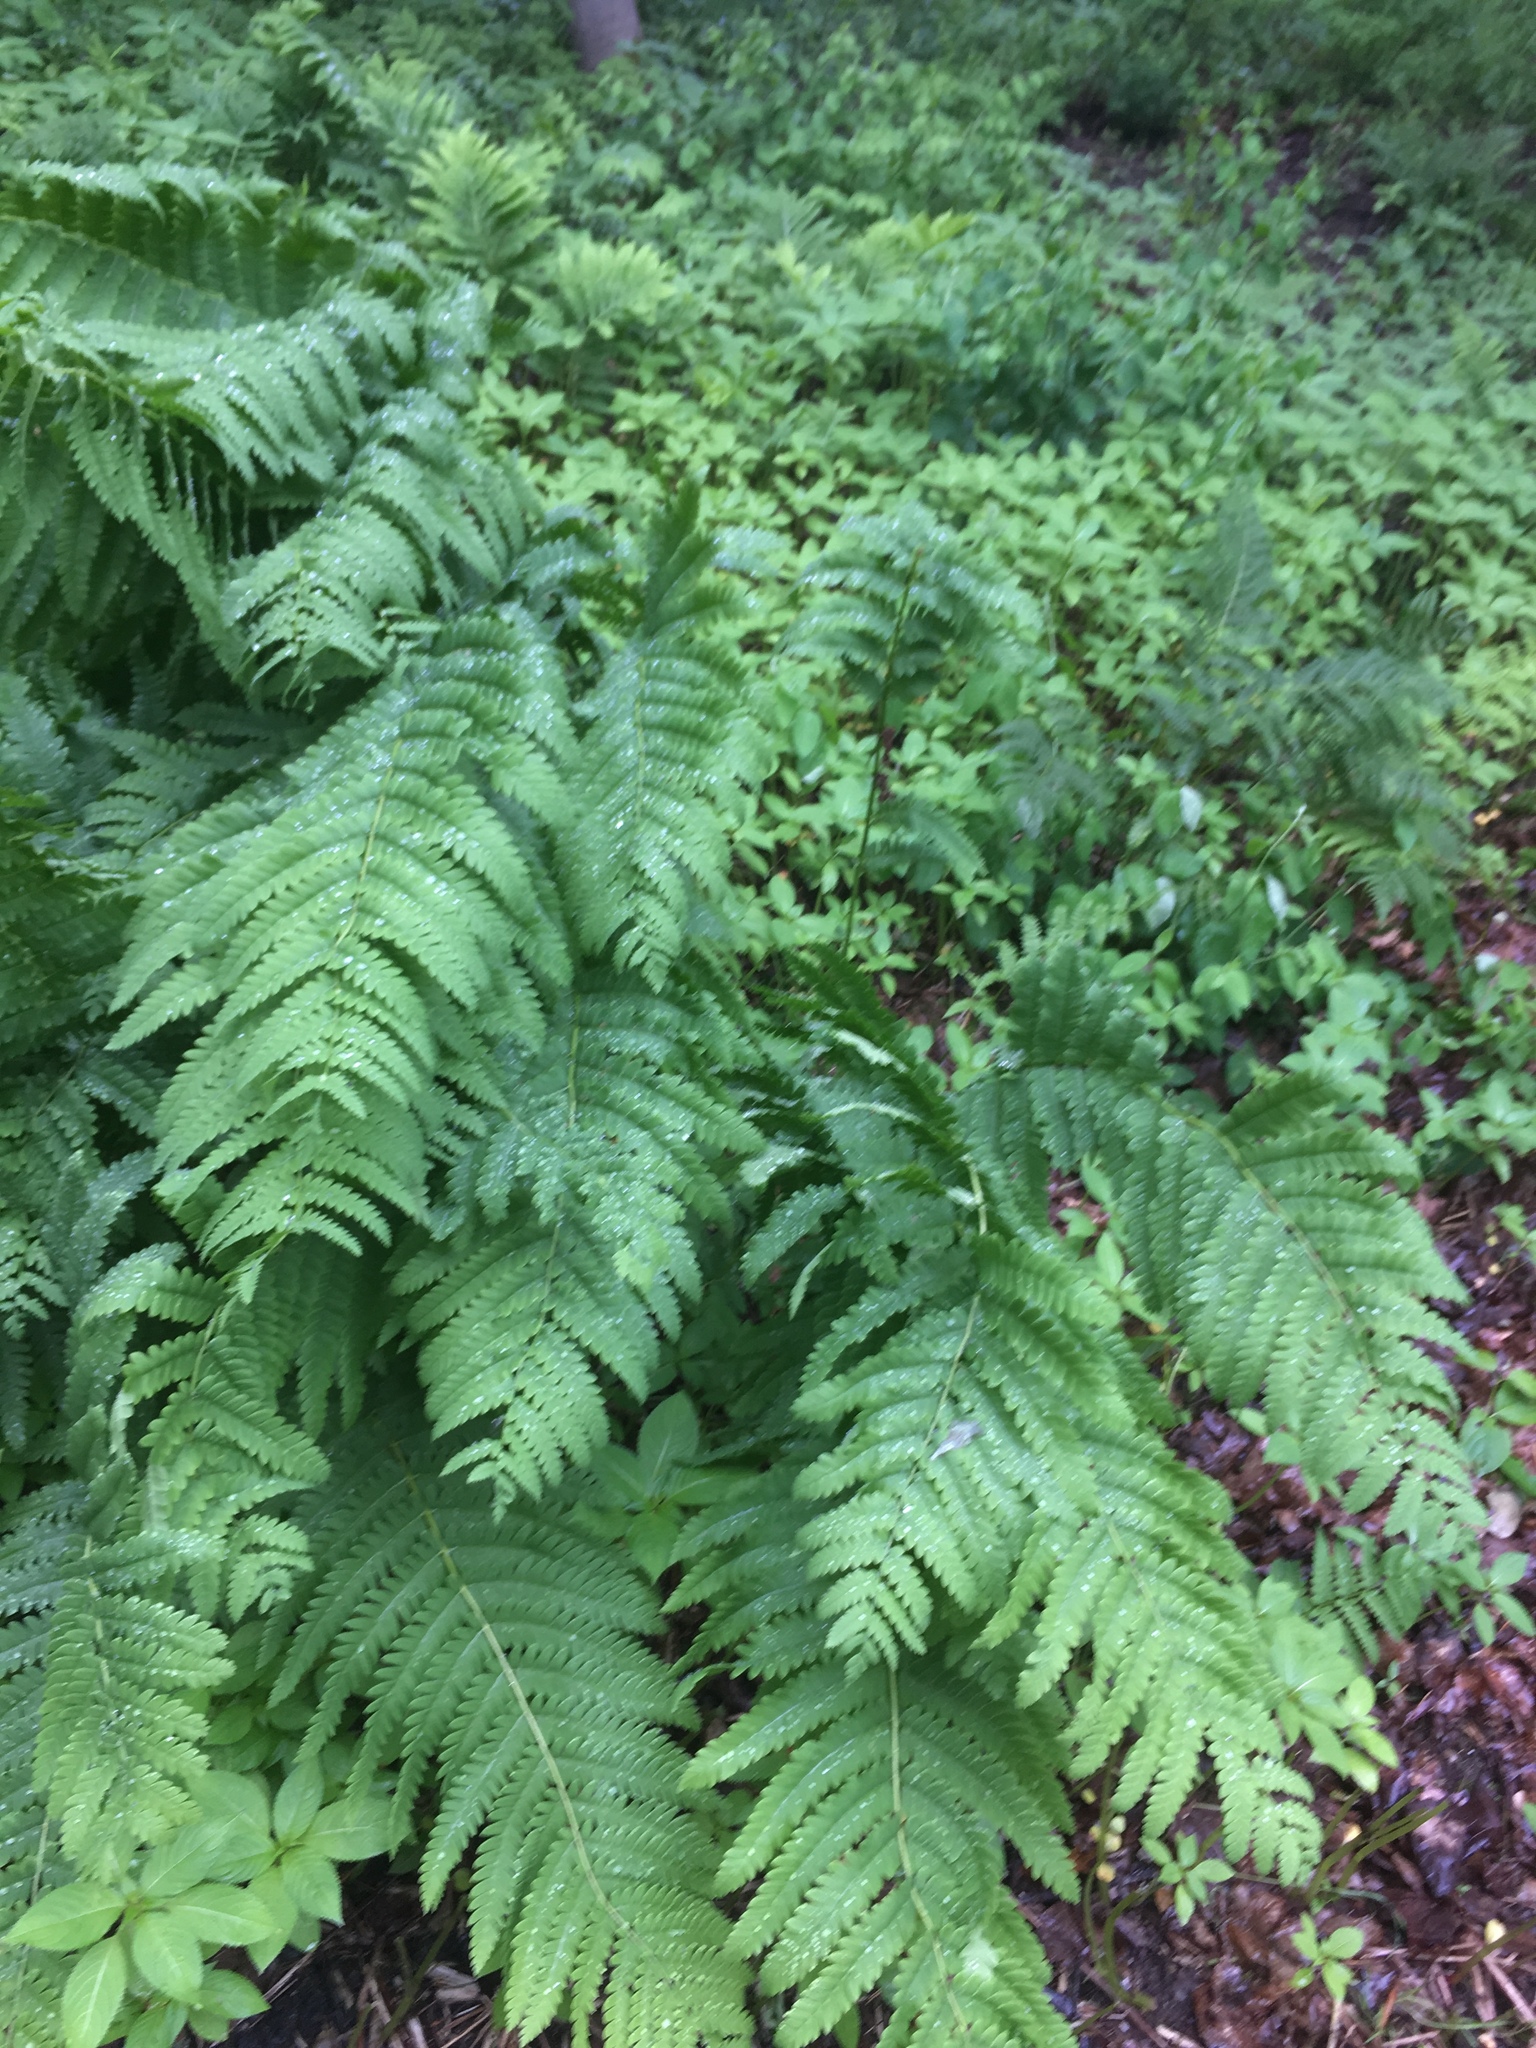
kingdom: Plantae
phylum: Tracheophyta
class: Polypodiopsida
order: Osmundales
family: Osmundaceae
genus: Claytosmunda
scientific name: Claytosmunda claytoniana
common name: Clayton's fern
